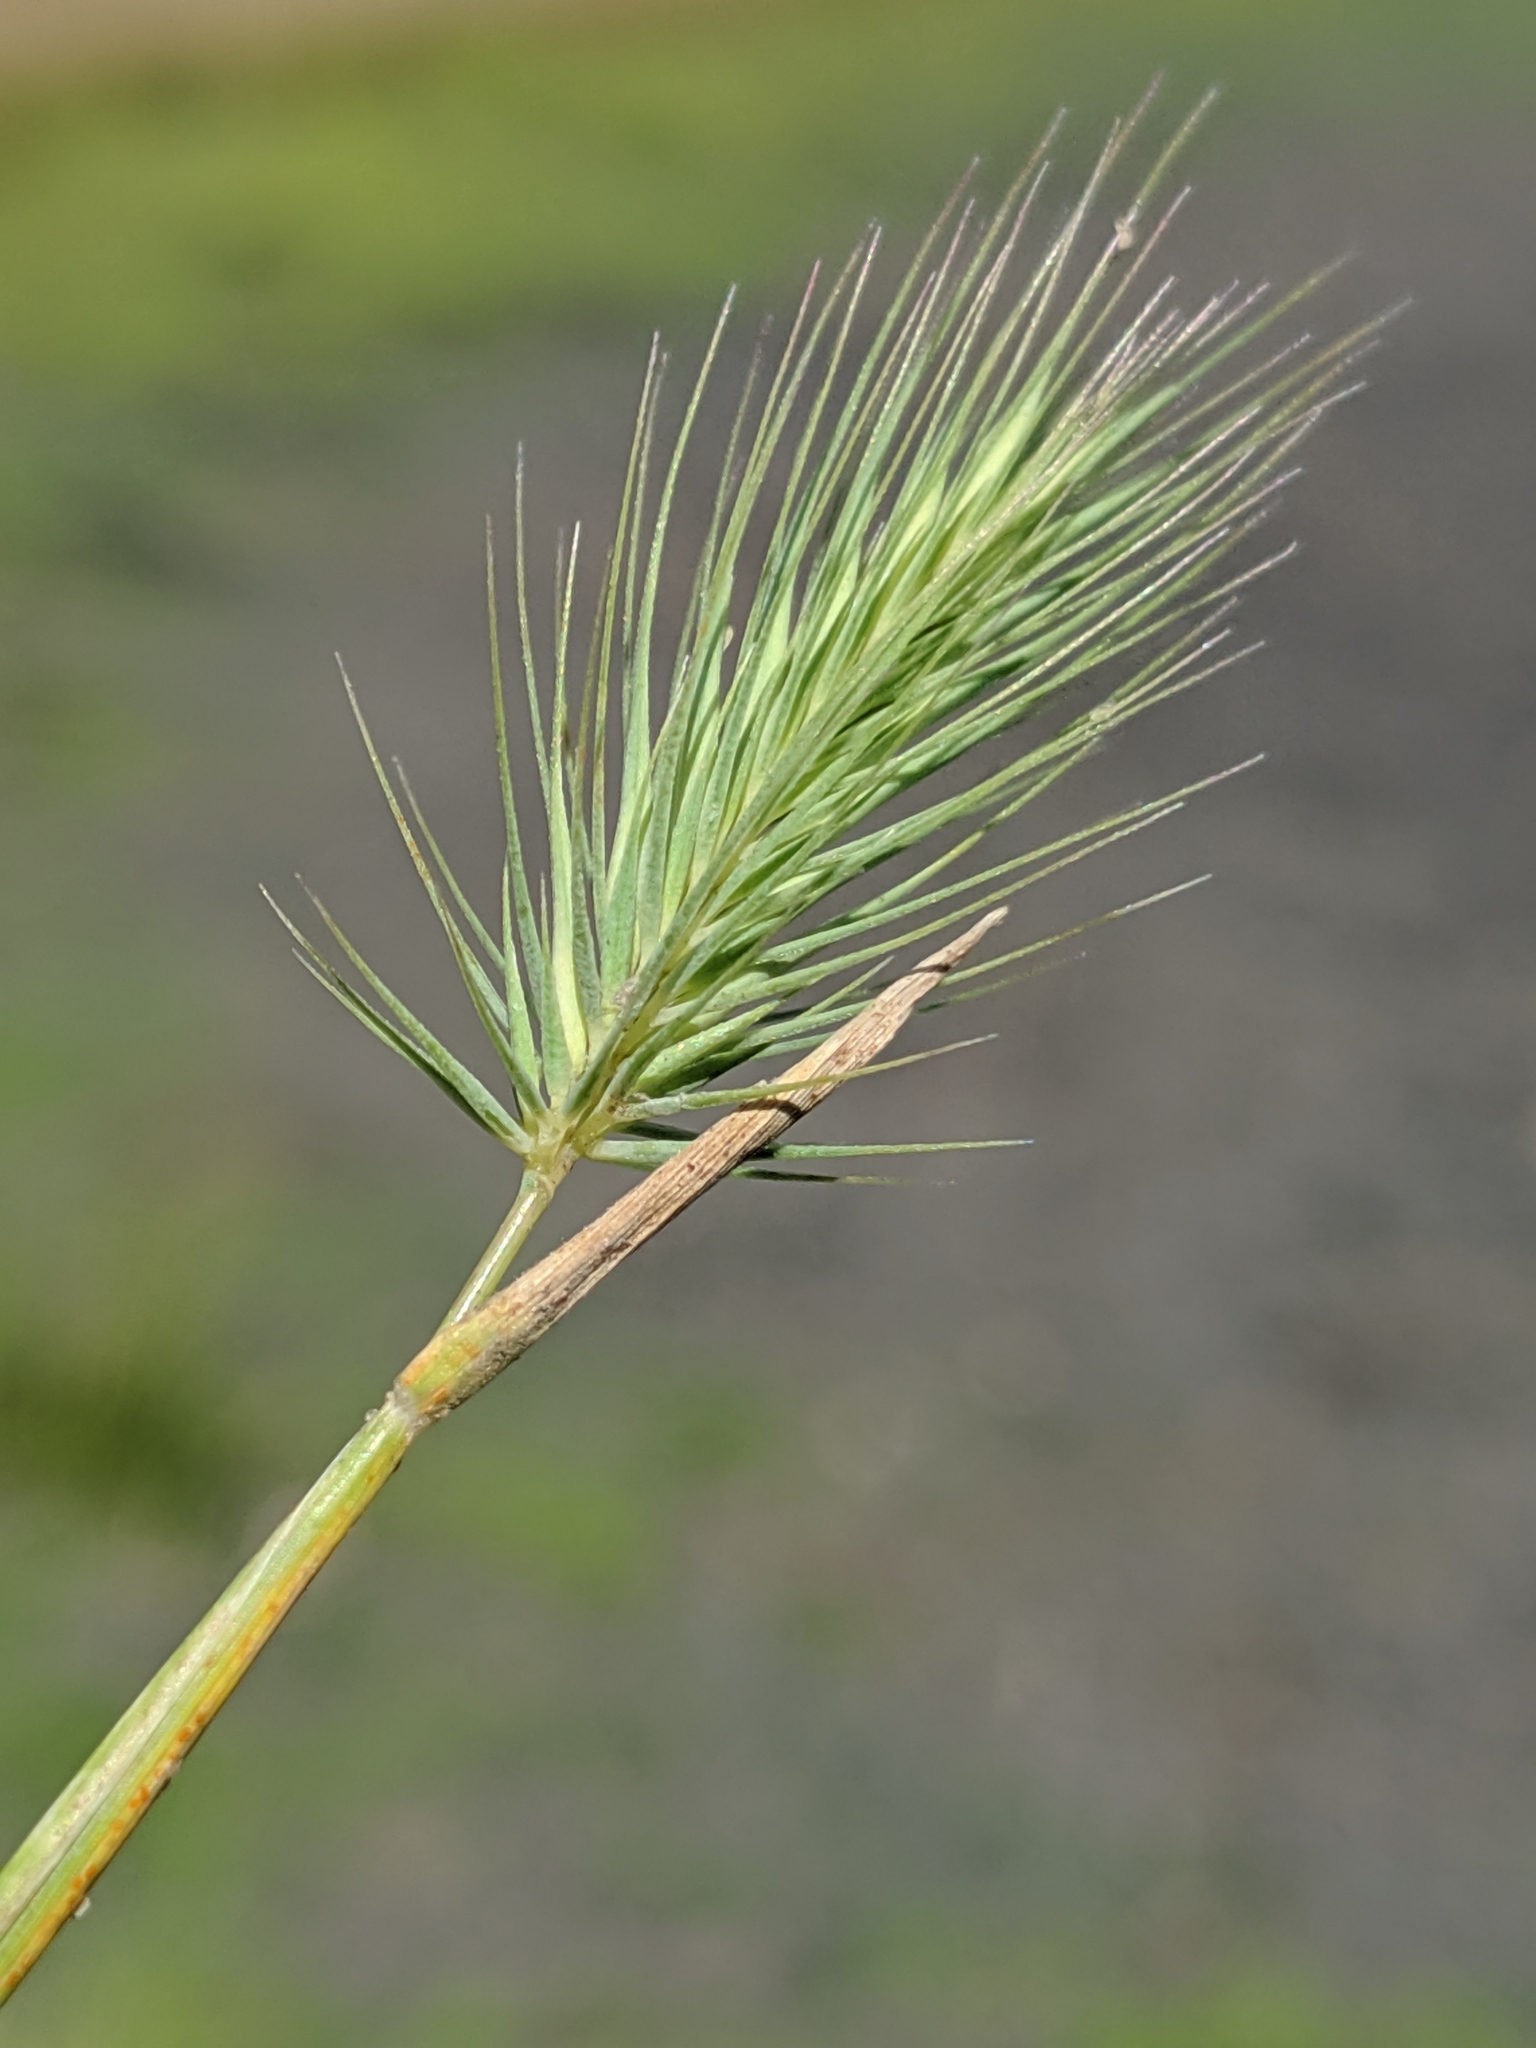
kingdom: Plantae
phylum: Tracheophyta
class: Liliopsida
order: Poales
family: Poaceae
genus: Hordeum
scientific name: Hordeum marinum
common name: Sea barley
